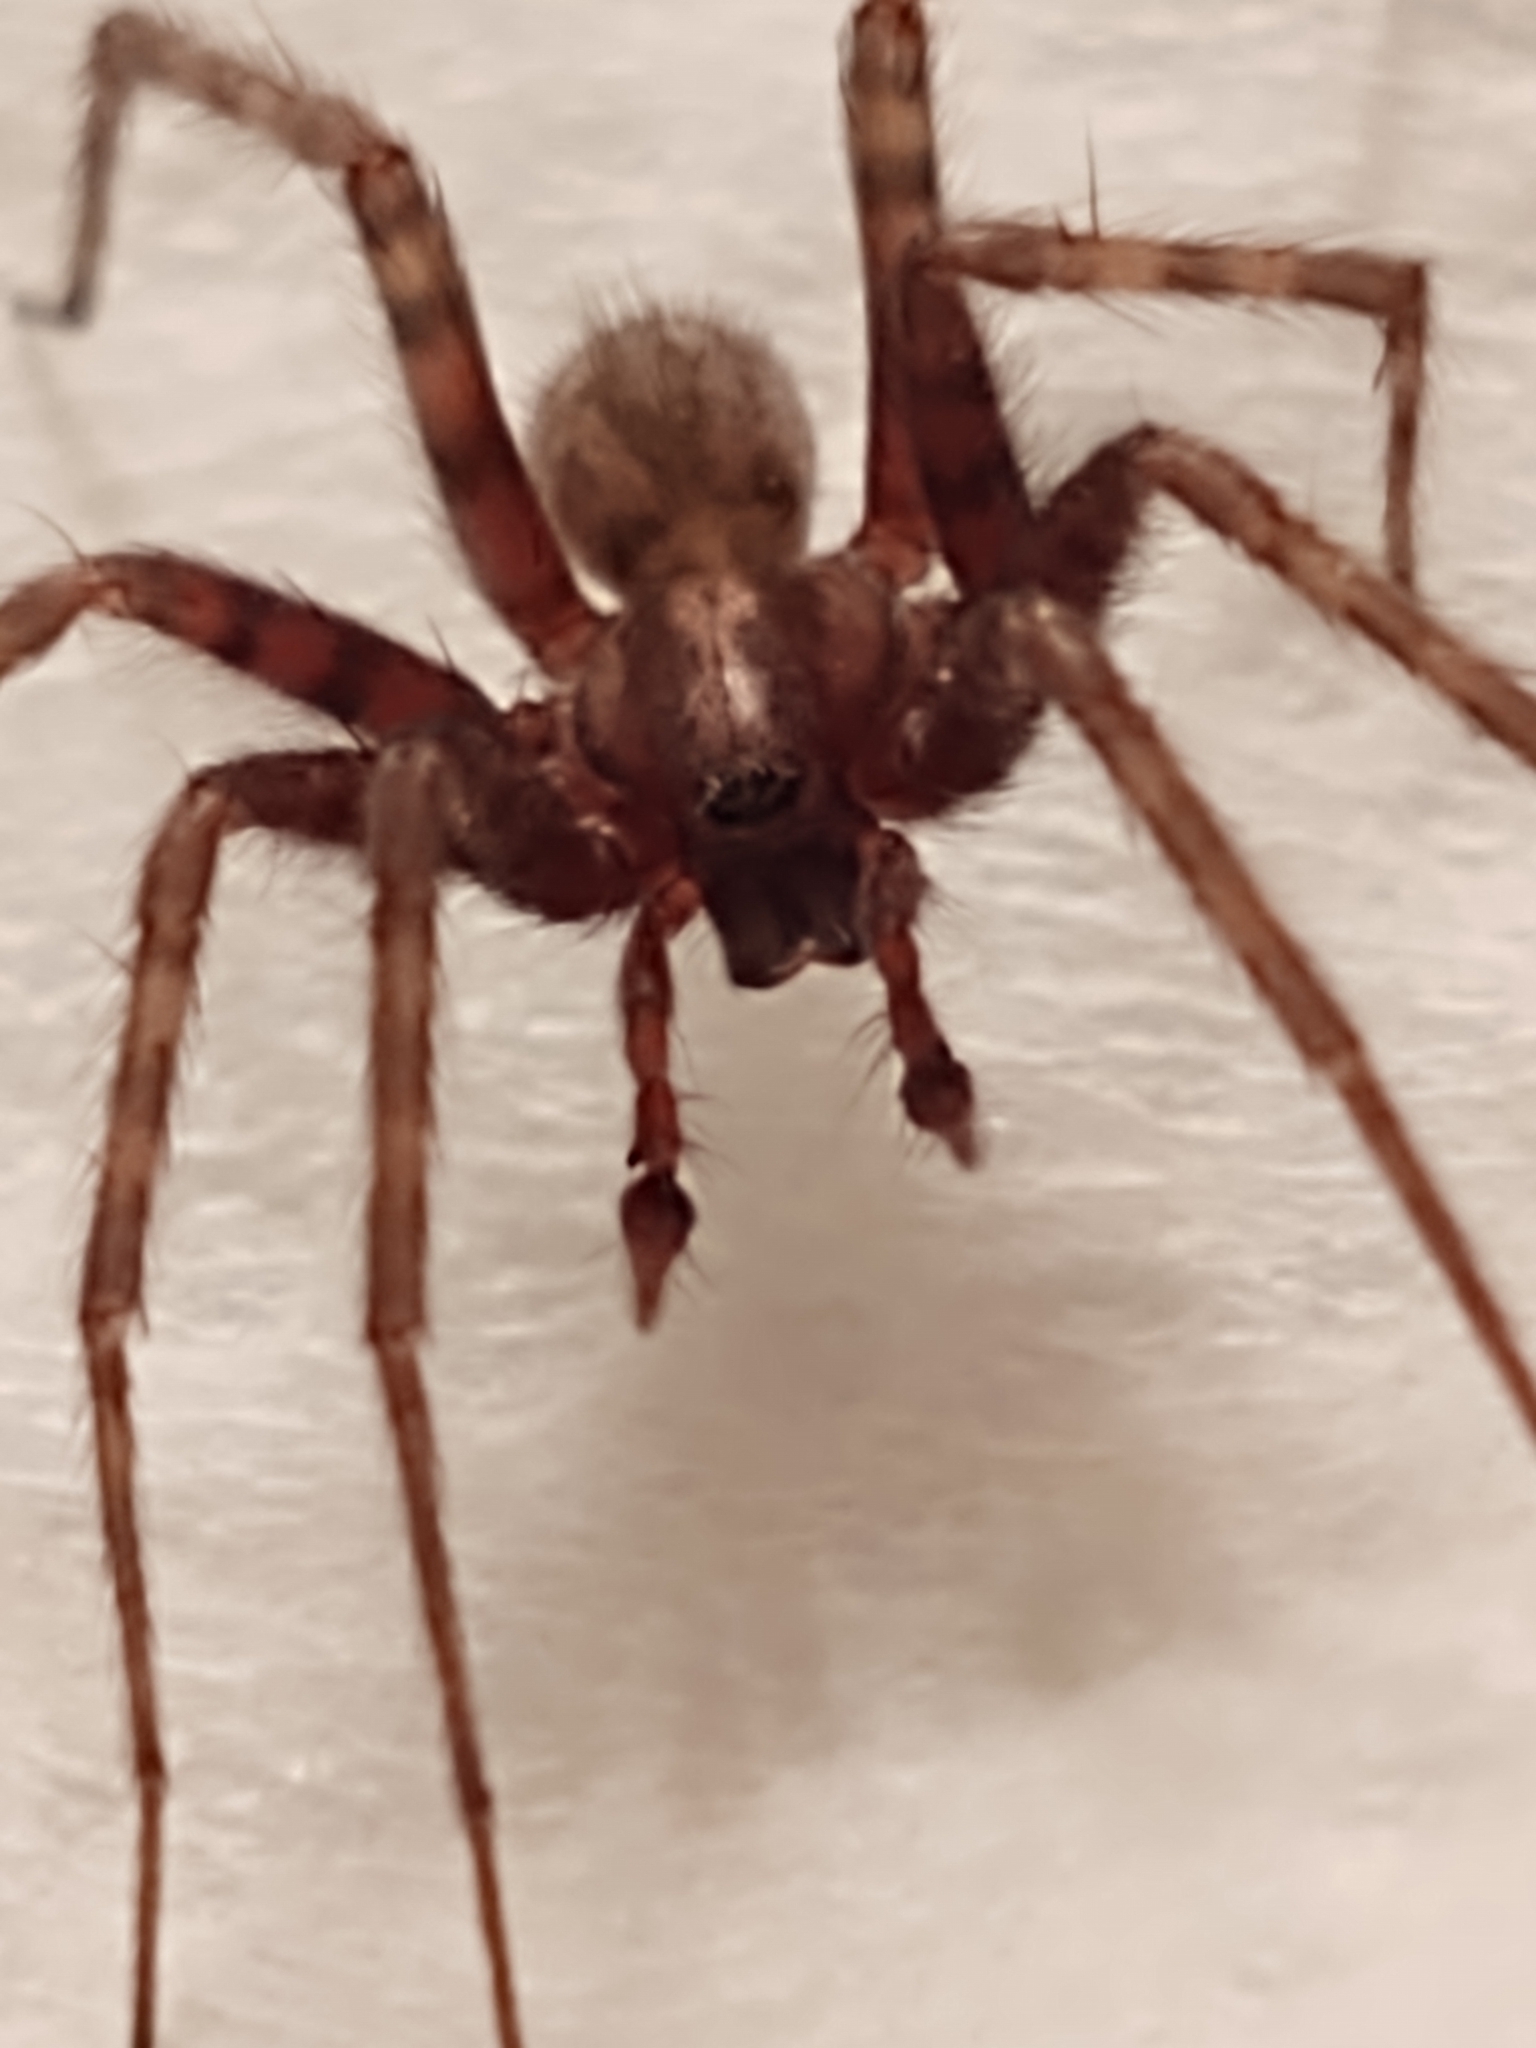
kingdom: Animalia
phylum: Arthropoda
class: Arachnida
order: Araneae
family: Agelenidae
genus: Tegenaria
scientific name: Tegenaria domestica
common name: Barn funnel weaver
